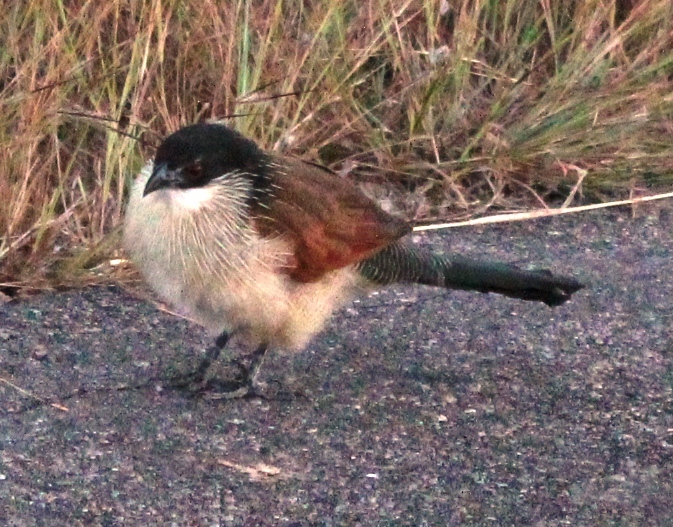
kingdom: Animalia
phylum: Chordata
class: Aves
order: Cuculiformes
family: Cuculidae
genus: Centropus
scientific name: Centropus superciliosus
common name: White-browed coucal
